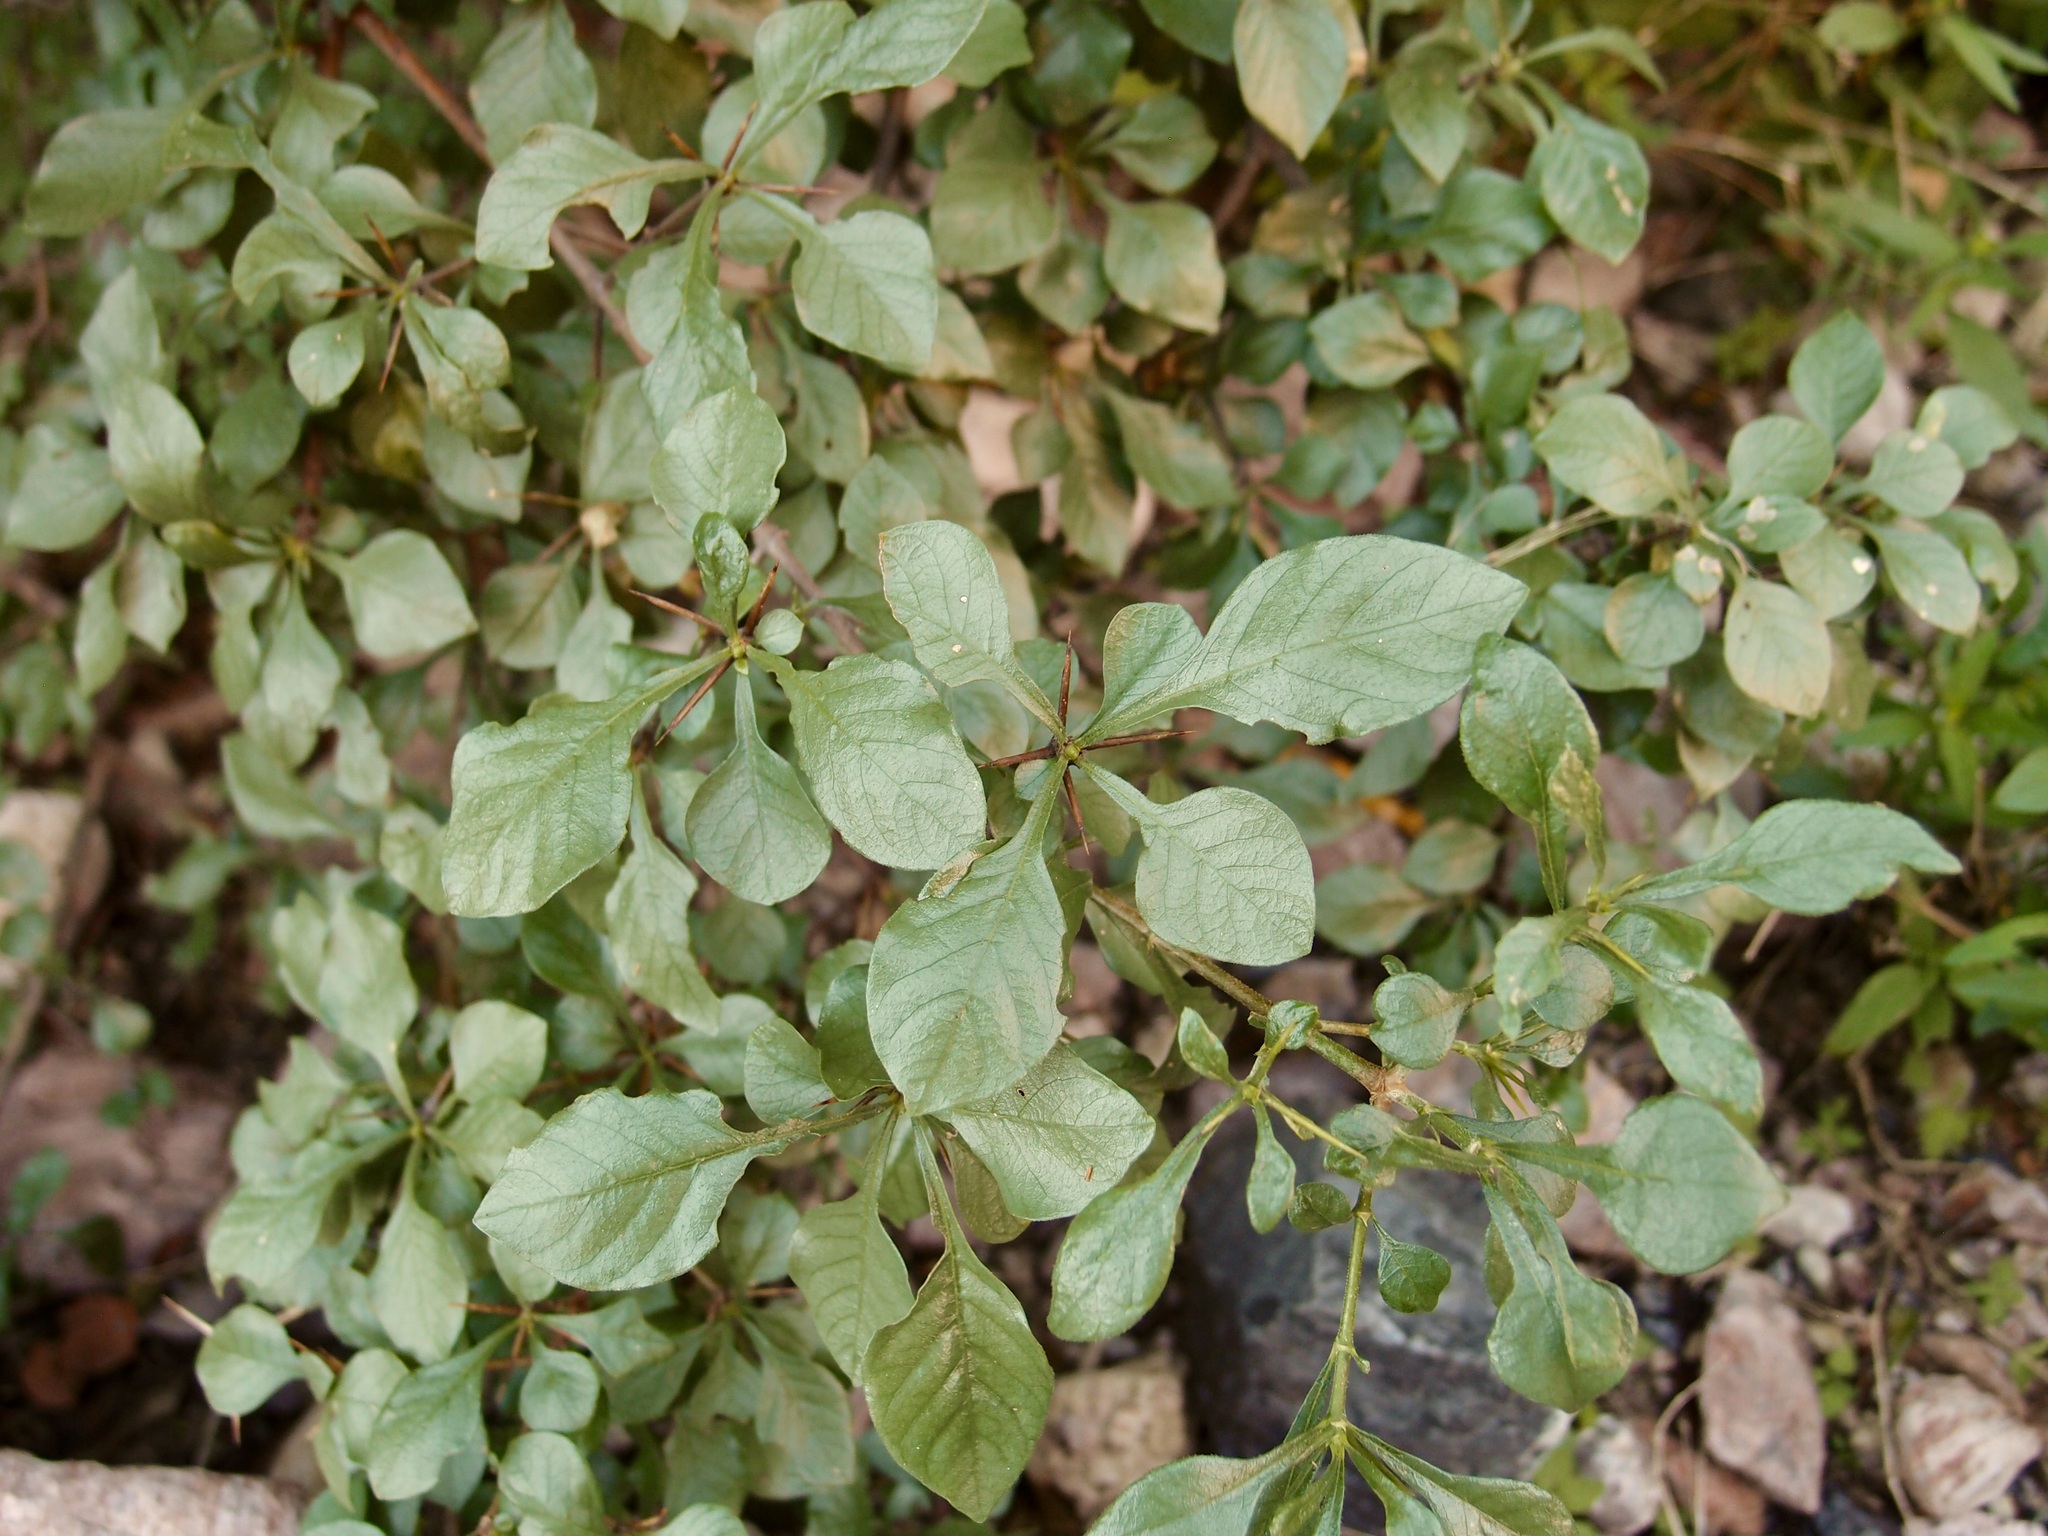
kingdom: Plantae
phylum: Tracheophyta
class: Magnoliopsida
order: Gentianales
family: Rubiaceae
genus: Randia
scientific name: Randia sonorensis
